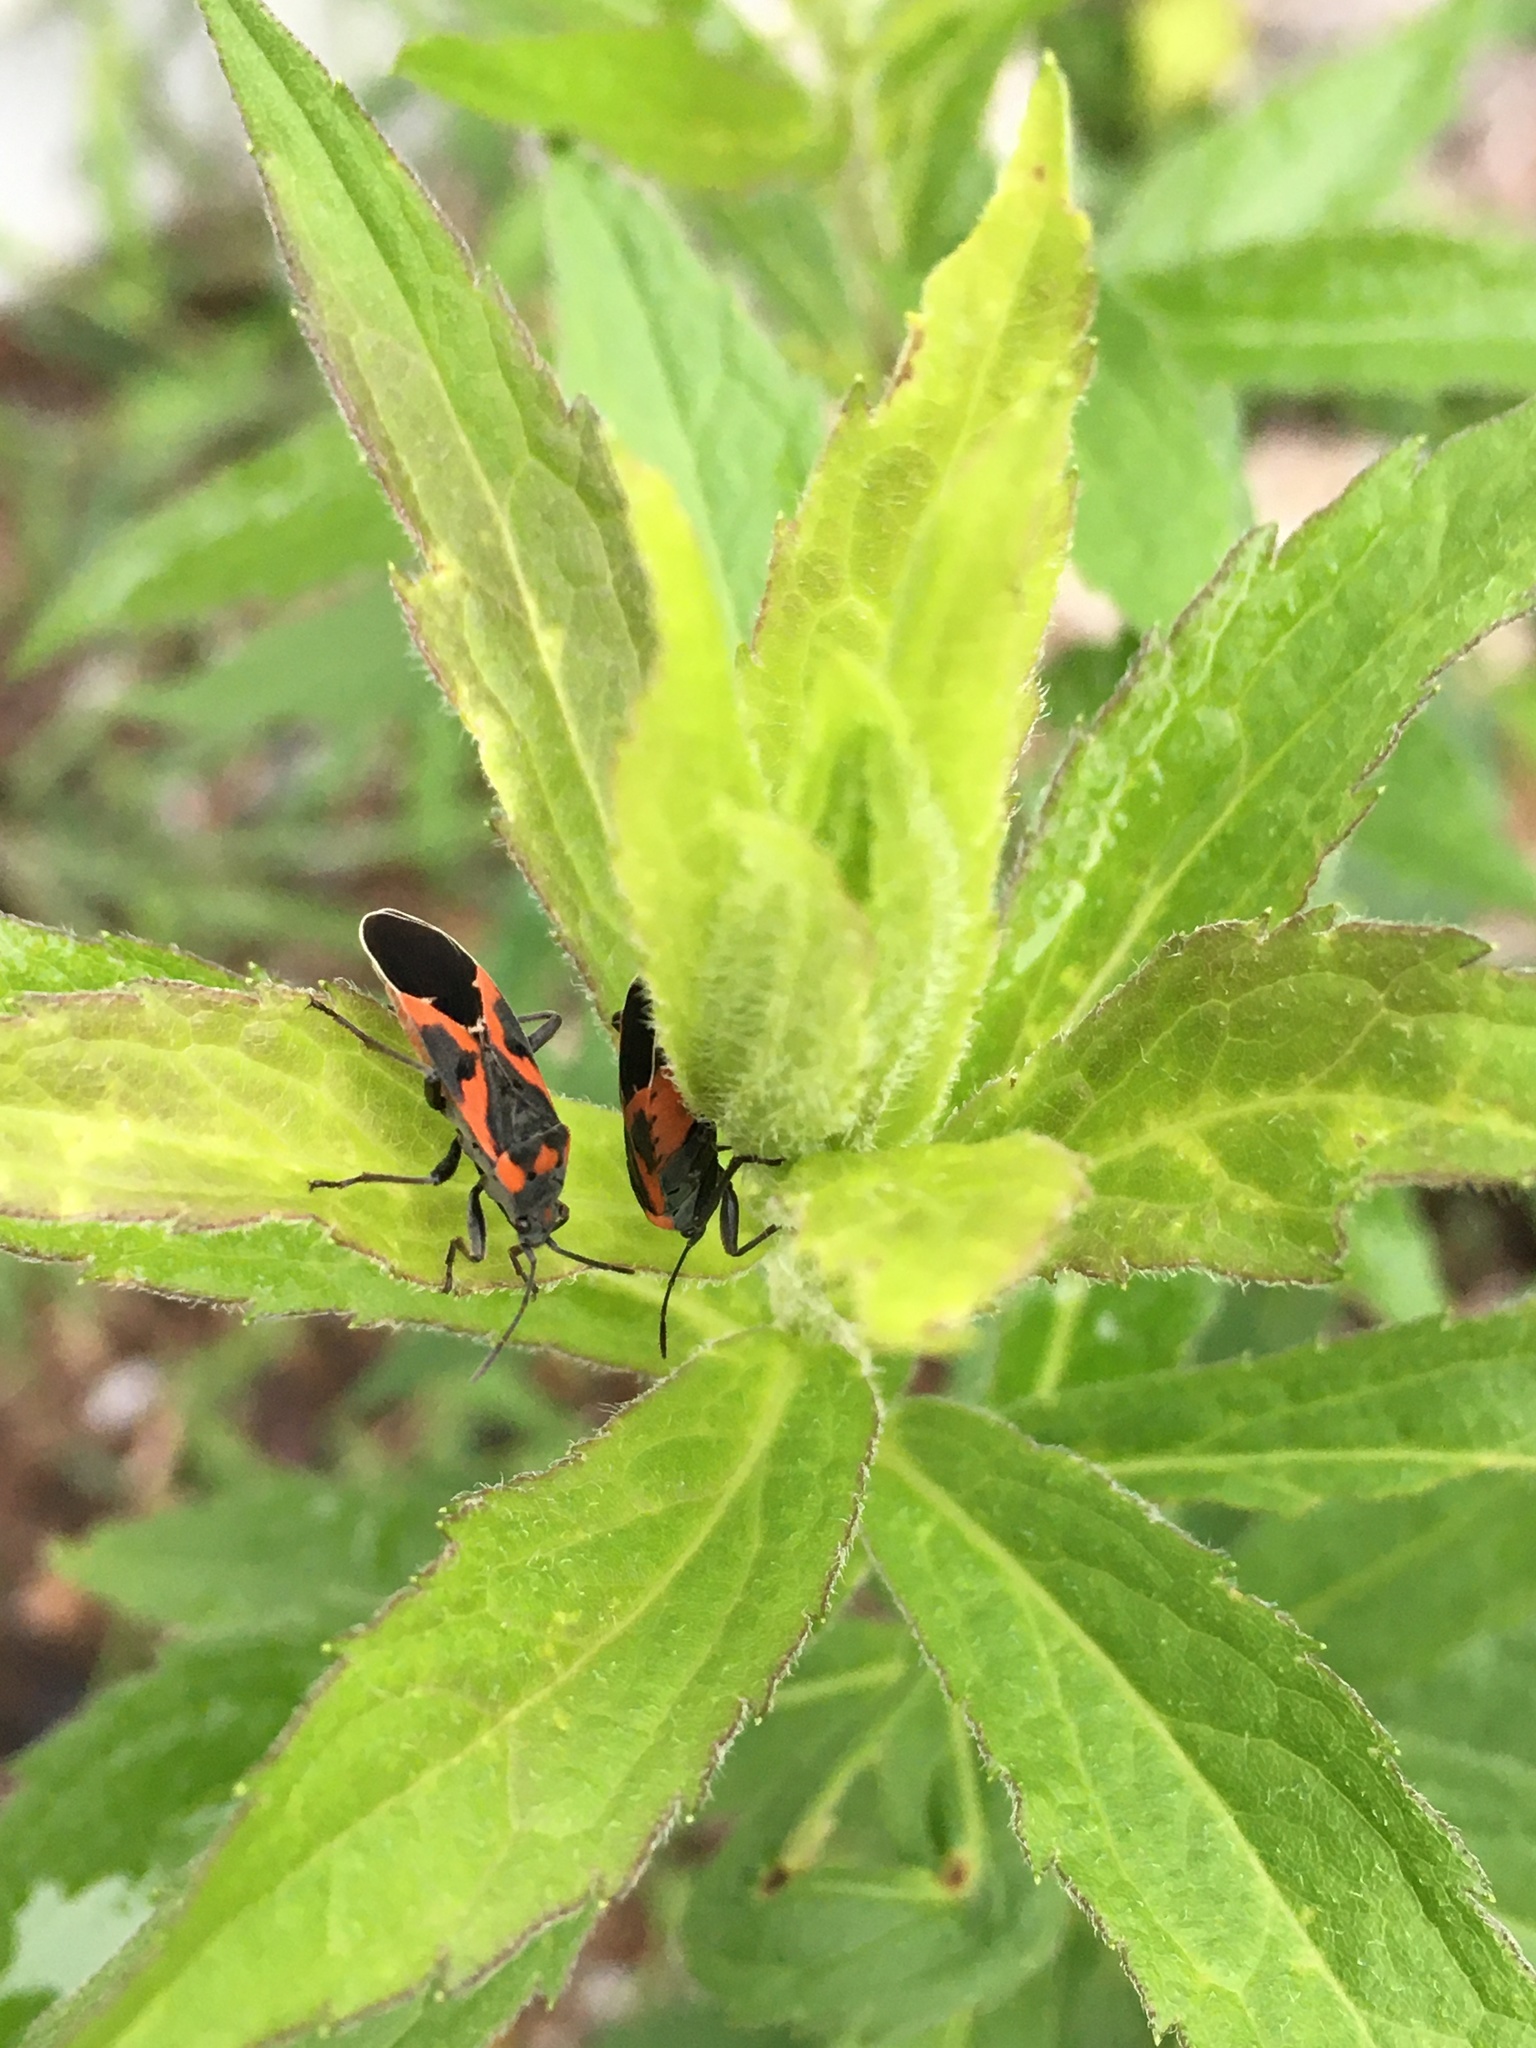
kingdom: Animalia
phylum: Arthropoda
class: Insecta
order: Hemiptera
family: Lygaeidae
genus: Lygaeus
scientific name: Lygaeus kalmii
